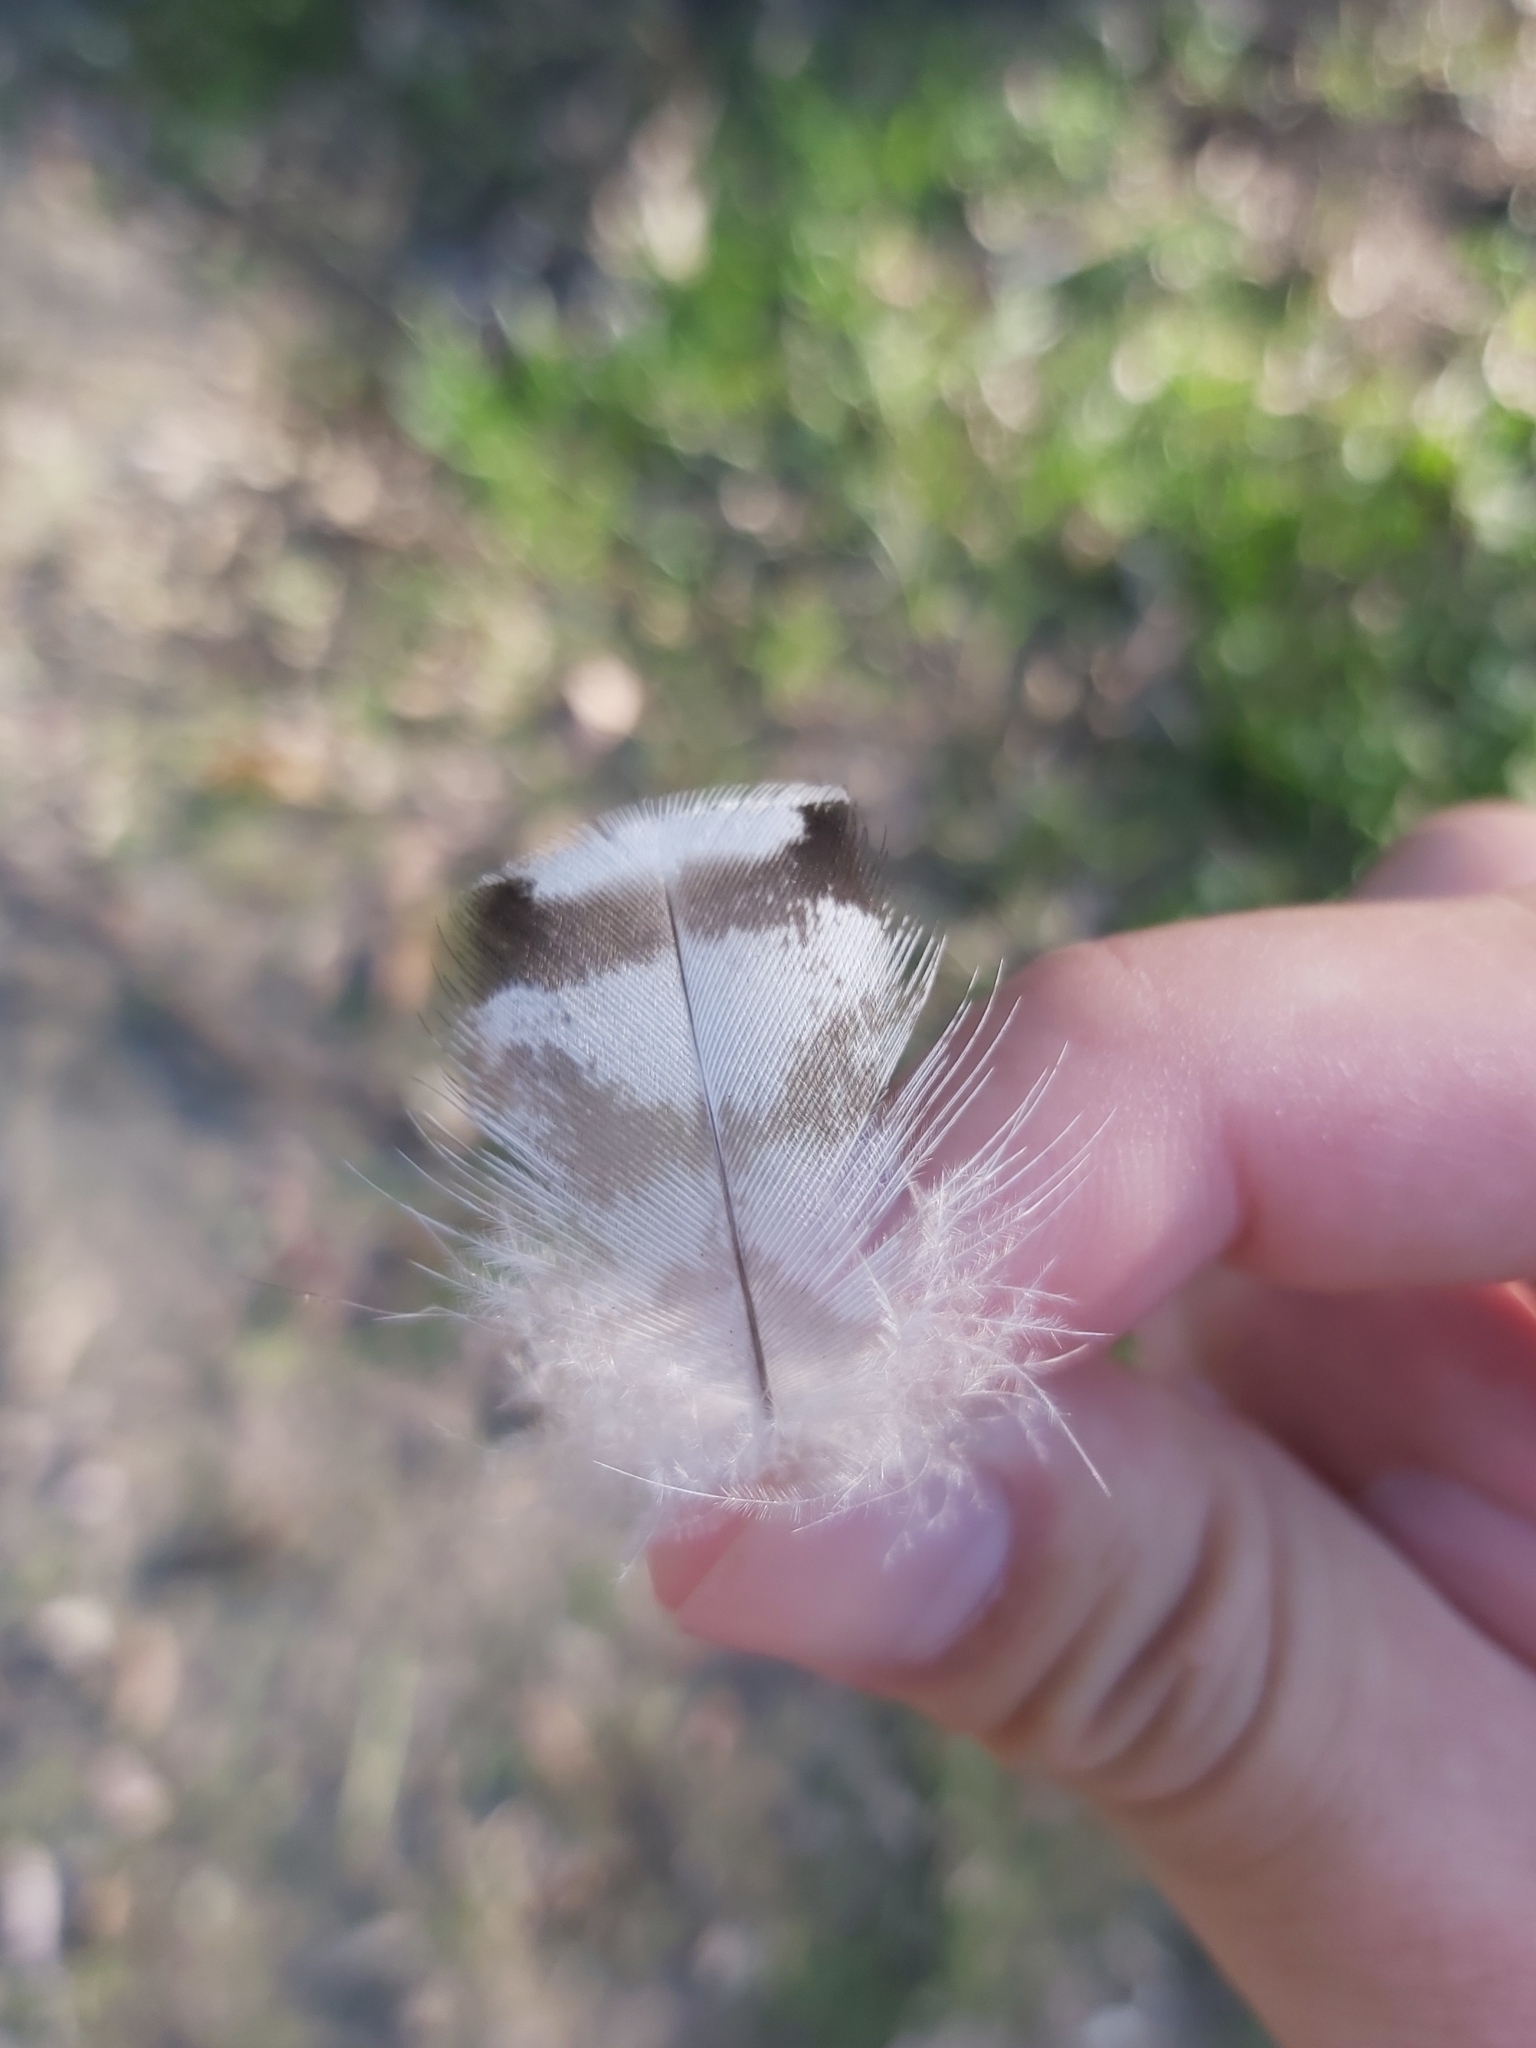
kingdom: Animalia
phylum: Chordata
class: Aves
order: Anseriformes
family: Anatidae
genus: Chenonetta
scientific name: Chenonetta jubata
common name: Maned duck
